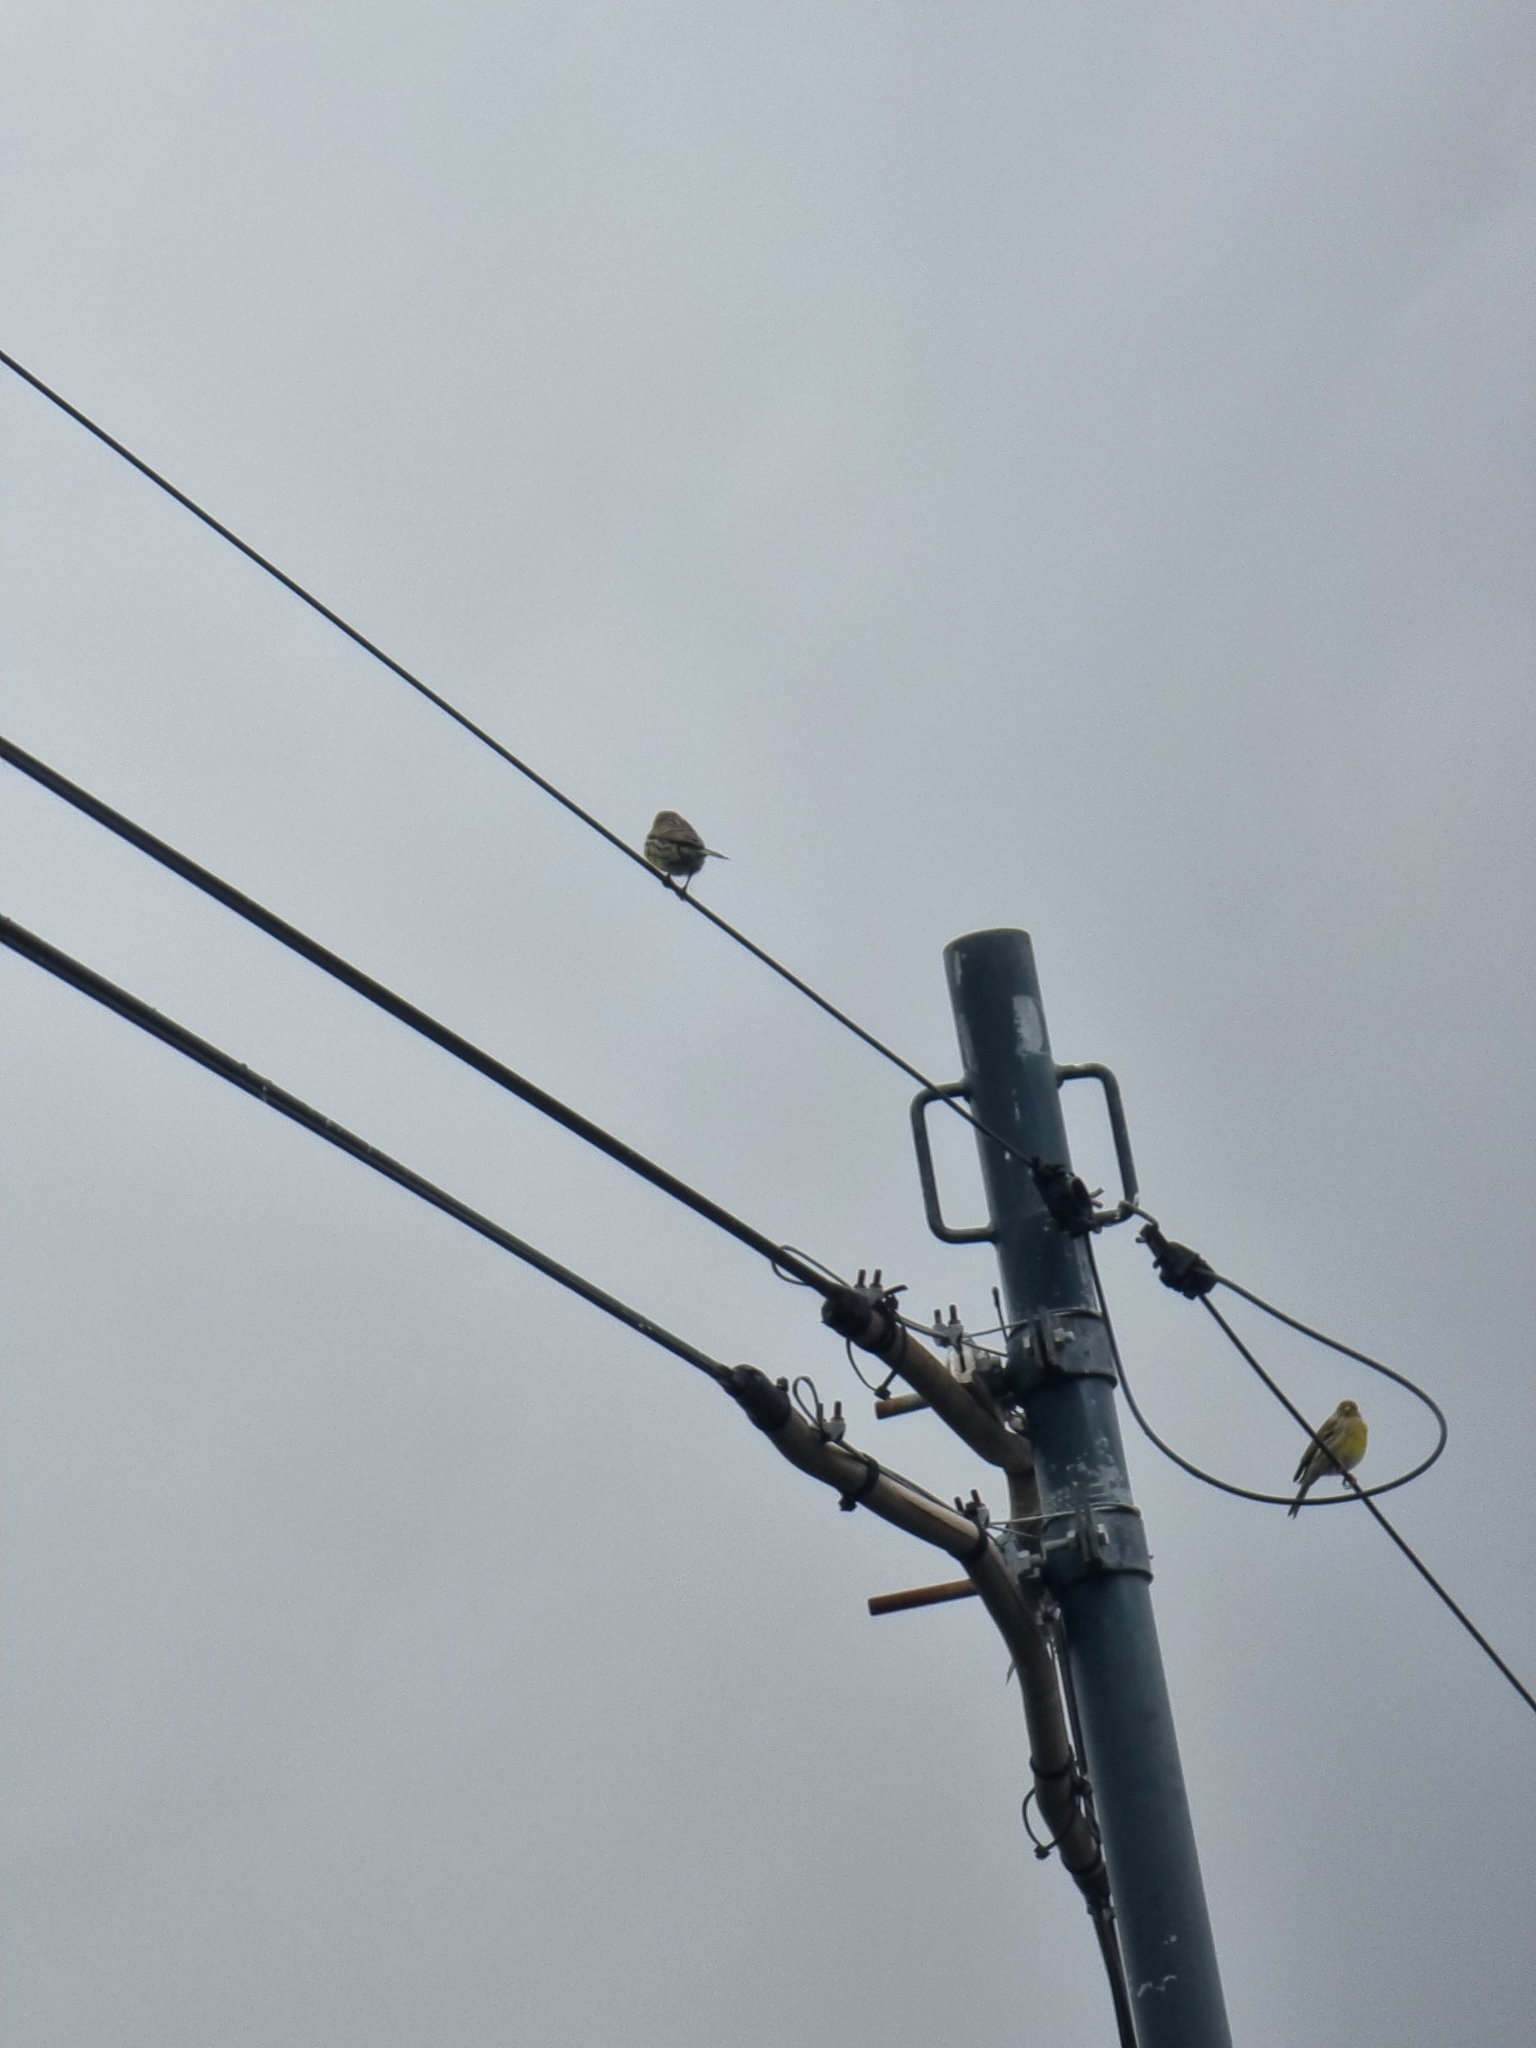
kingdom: Animalia
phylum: Chordata
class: Aves
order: Passeriformes
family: Fringillidae
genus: Serinus
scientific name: Serinus canaria
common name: Atlantic canary
